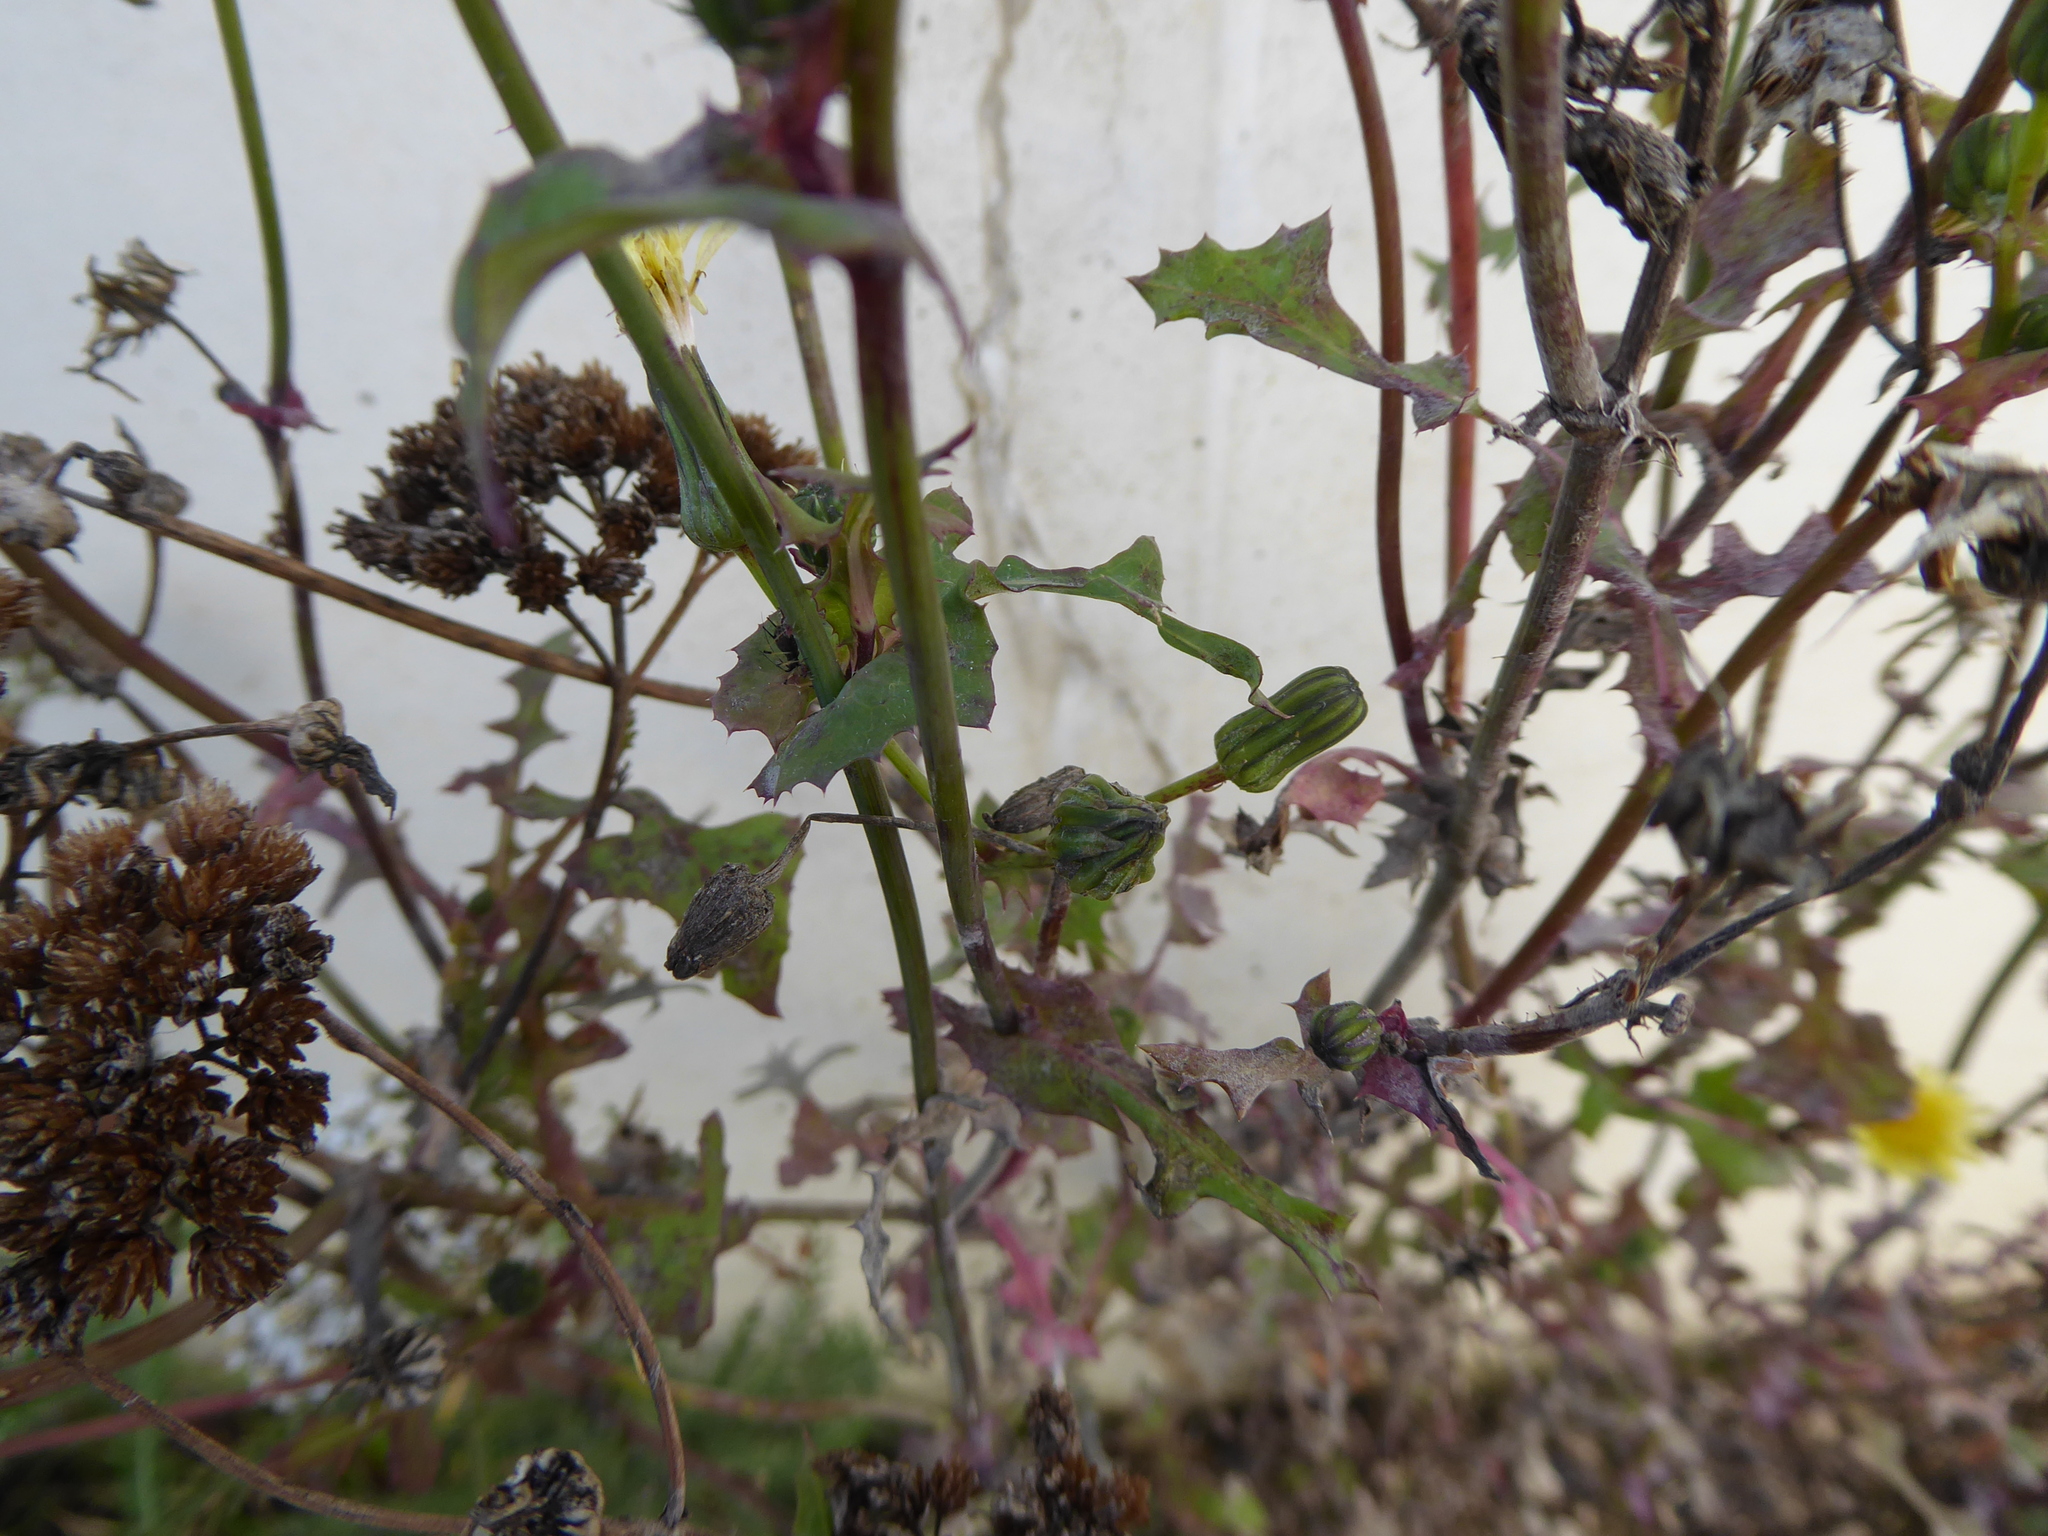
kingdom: Plantae
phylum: Tracheophyta
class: Magnoliopsida
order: Asterales
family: Asteraceae
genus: Sonchus
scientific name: Sonchus oleraceus
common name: Common sowthistle
